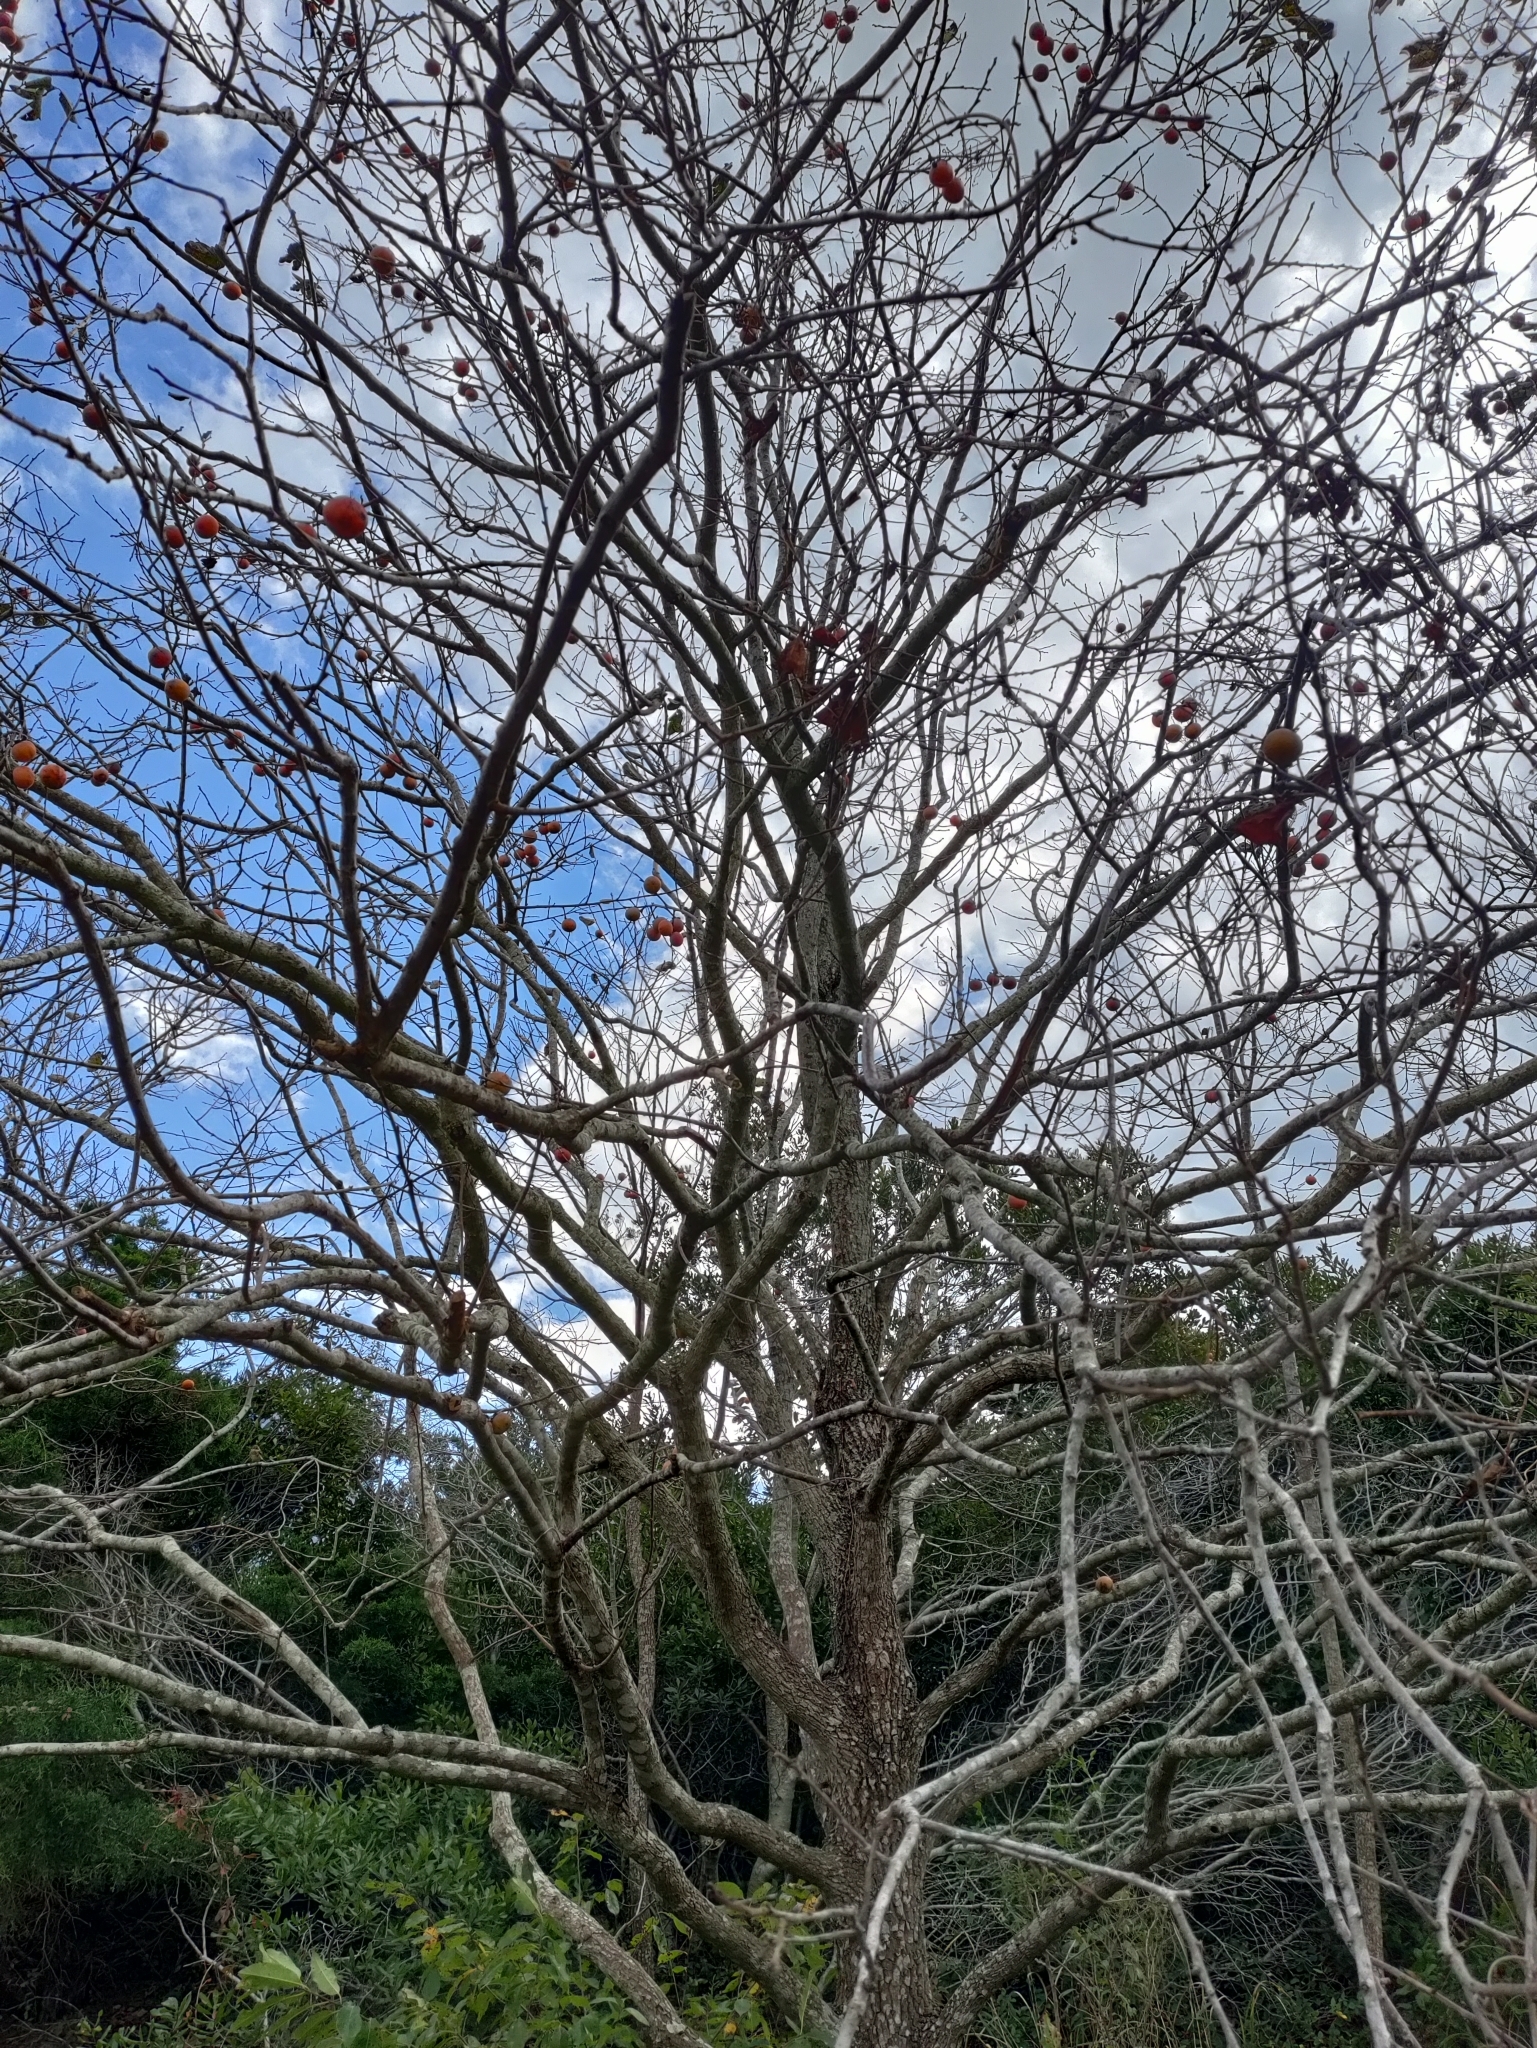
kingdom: Plantae
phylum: Tracheophyta
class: Magnoliopsida
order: Ericales
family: Ebenaceae
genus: Diospyros
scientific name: Diospyros virginiana
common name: Persimmon
